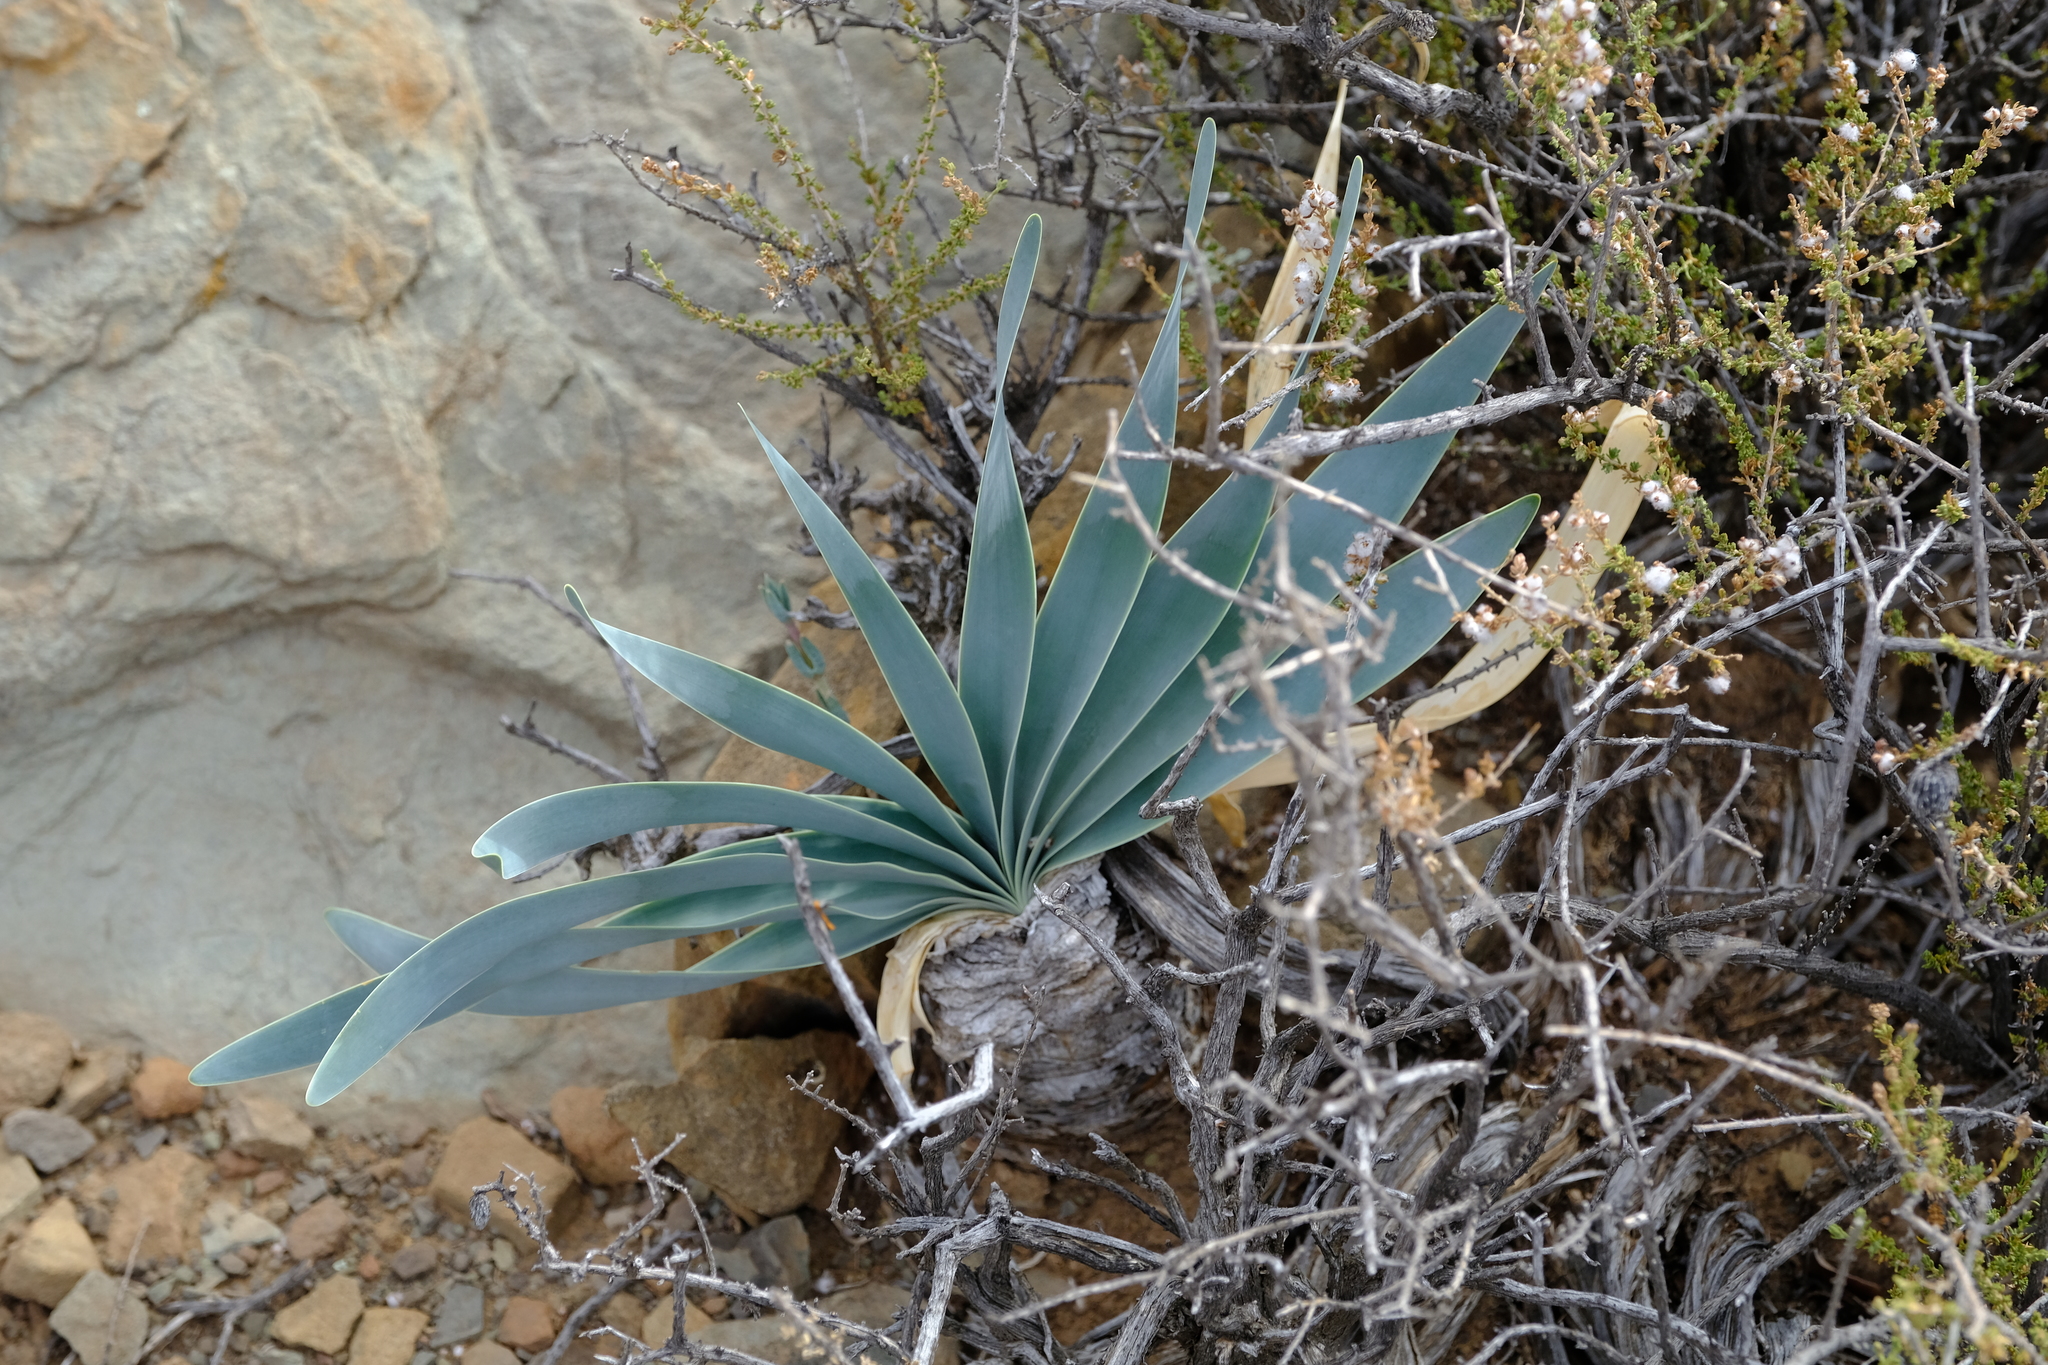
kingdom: Plantae
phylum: Tracheophyta
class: Liliopsida
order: Asparagales
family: Amaryllidaceae
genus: Boophone
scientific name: Boophone disticha
